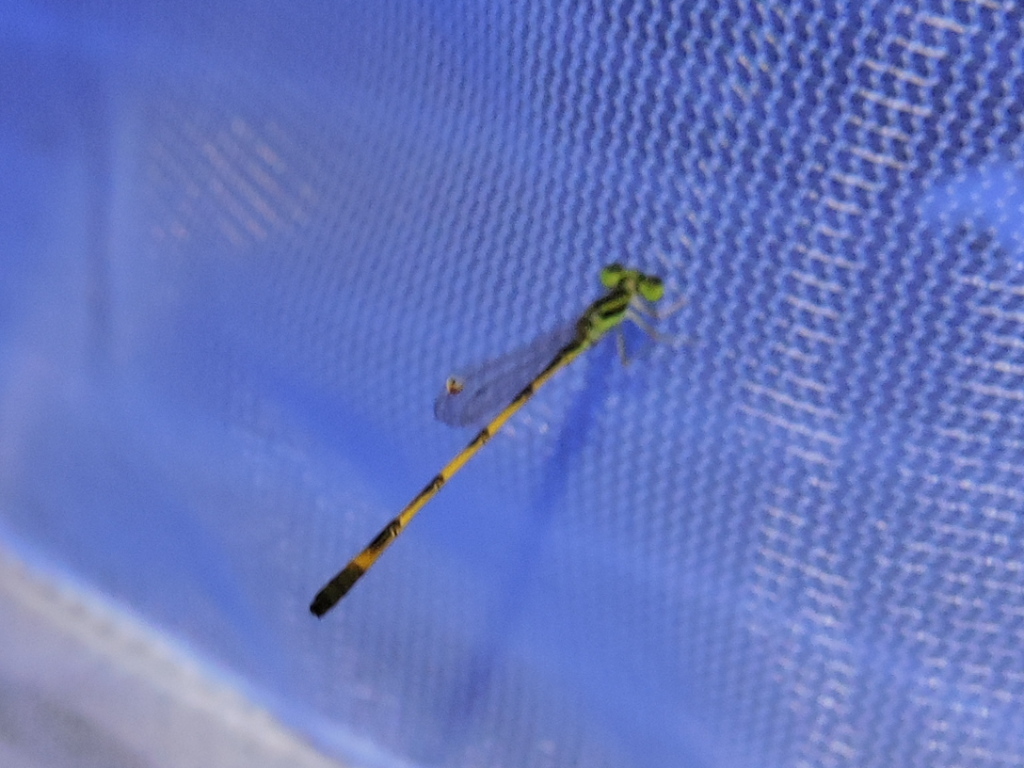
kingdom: Animalia
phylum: Arthropoda
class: Insecta
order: Odonata
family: Coenagrionidae
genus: Ischnura
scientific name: Ischnura hastata
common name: Citrine forktail
